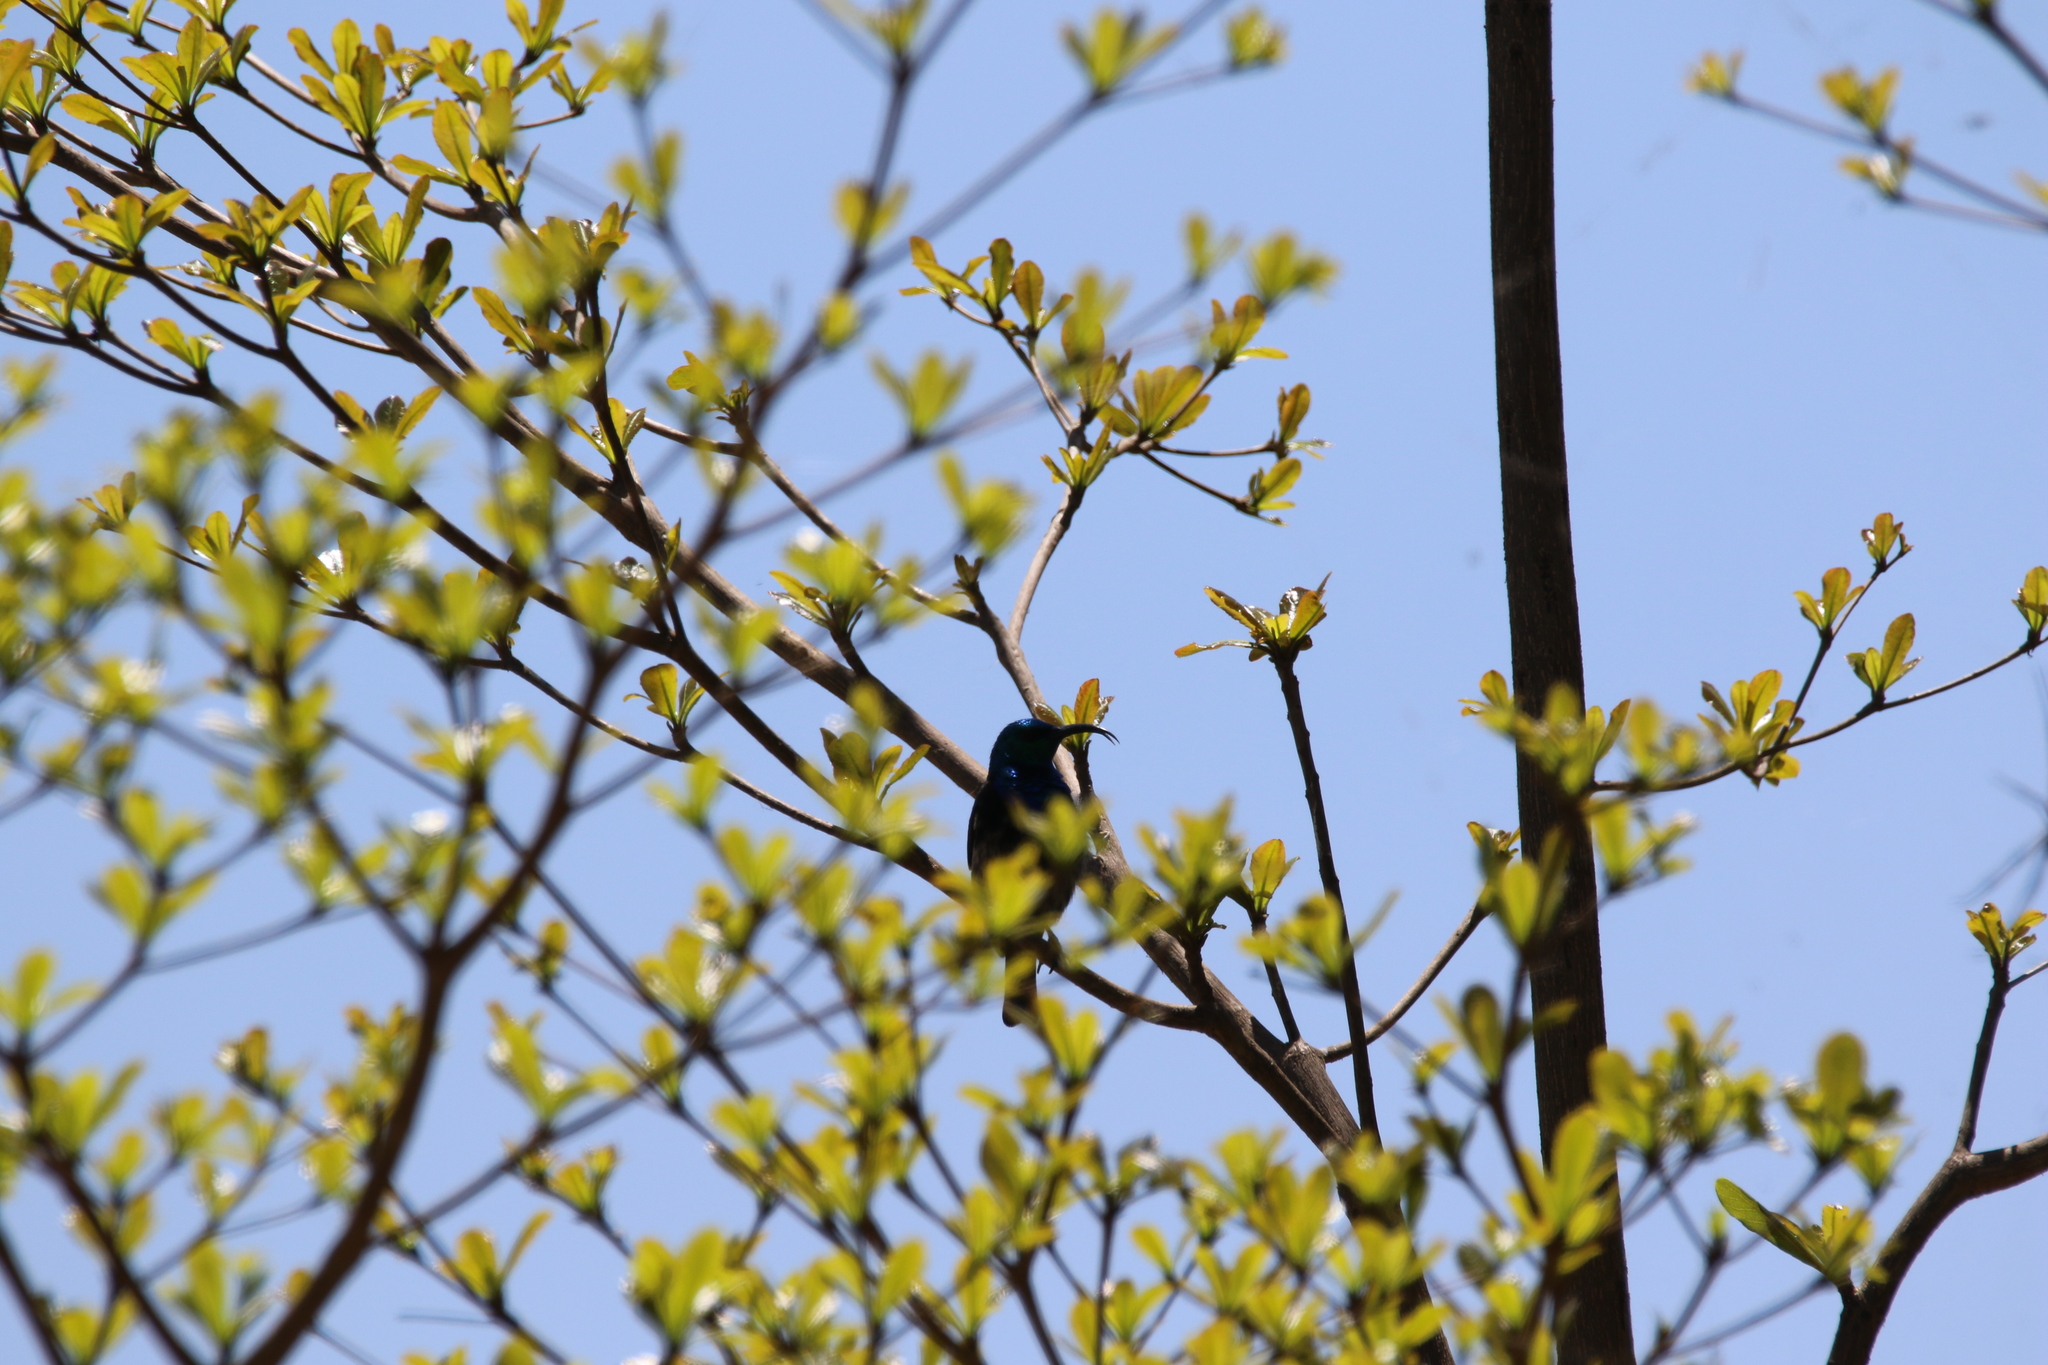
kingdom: Animalia
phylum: Chordata
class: Aves
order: Passeriformes
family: Nectariniidae
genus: Cinnyris
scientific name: Cinnyris notatus
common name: Malagasy green sunbird
